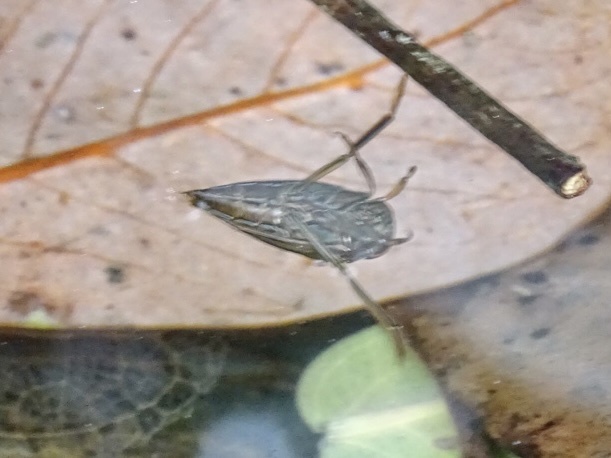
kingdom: Animalia
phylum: Arthropoda
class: Insecta
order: Hemiptera
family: Notonectidae
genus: Enithares
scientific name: Enithares
